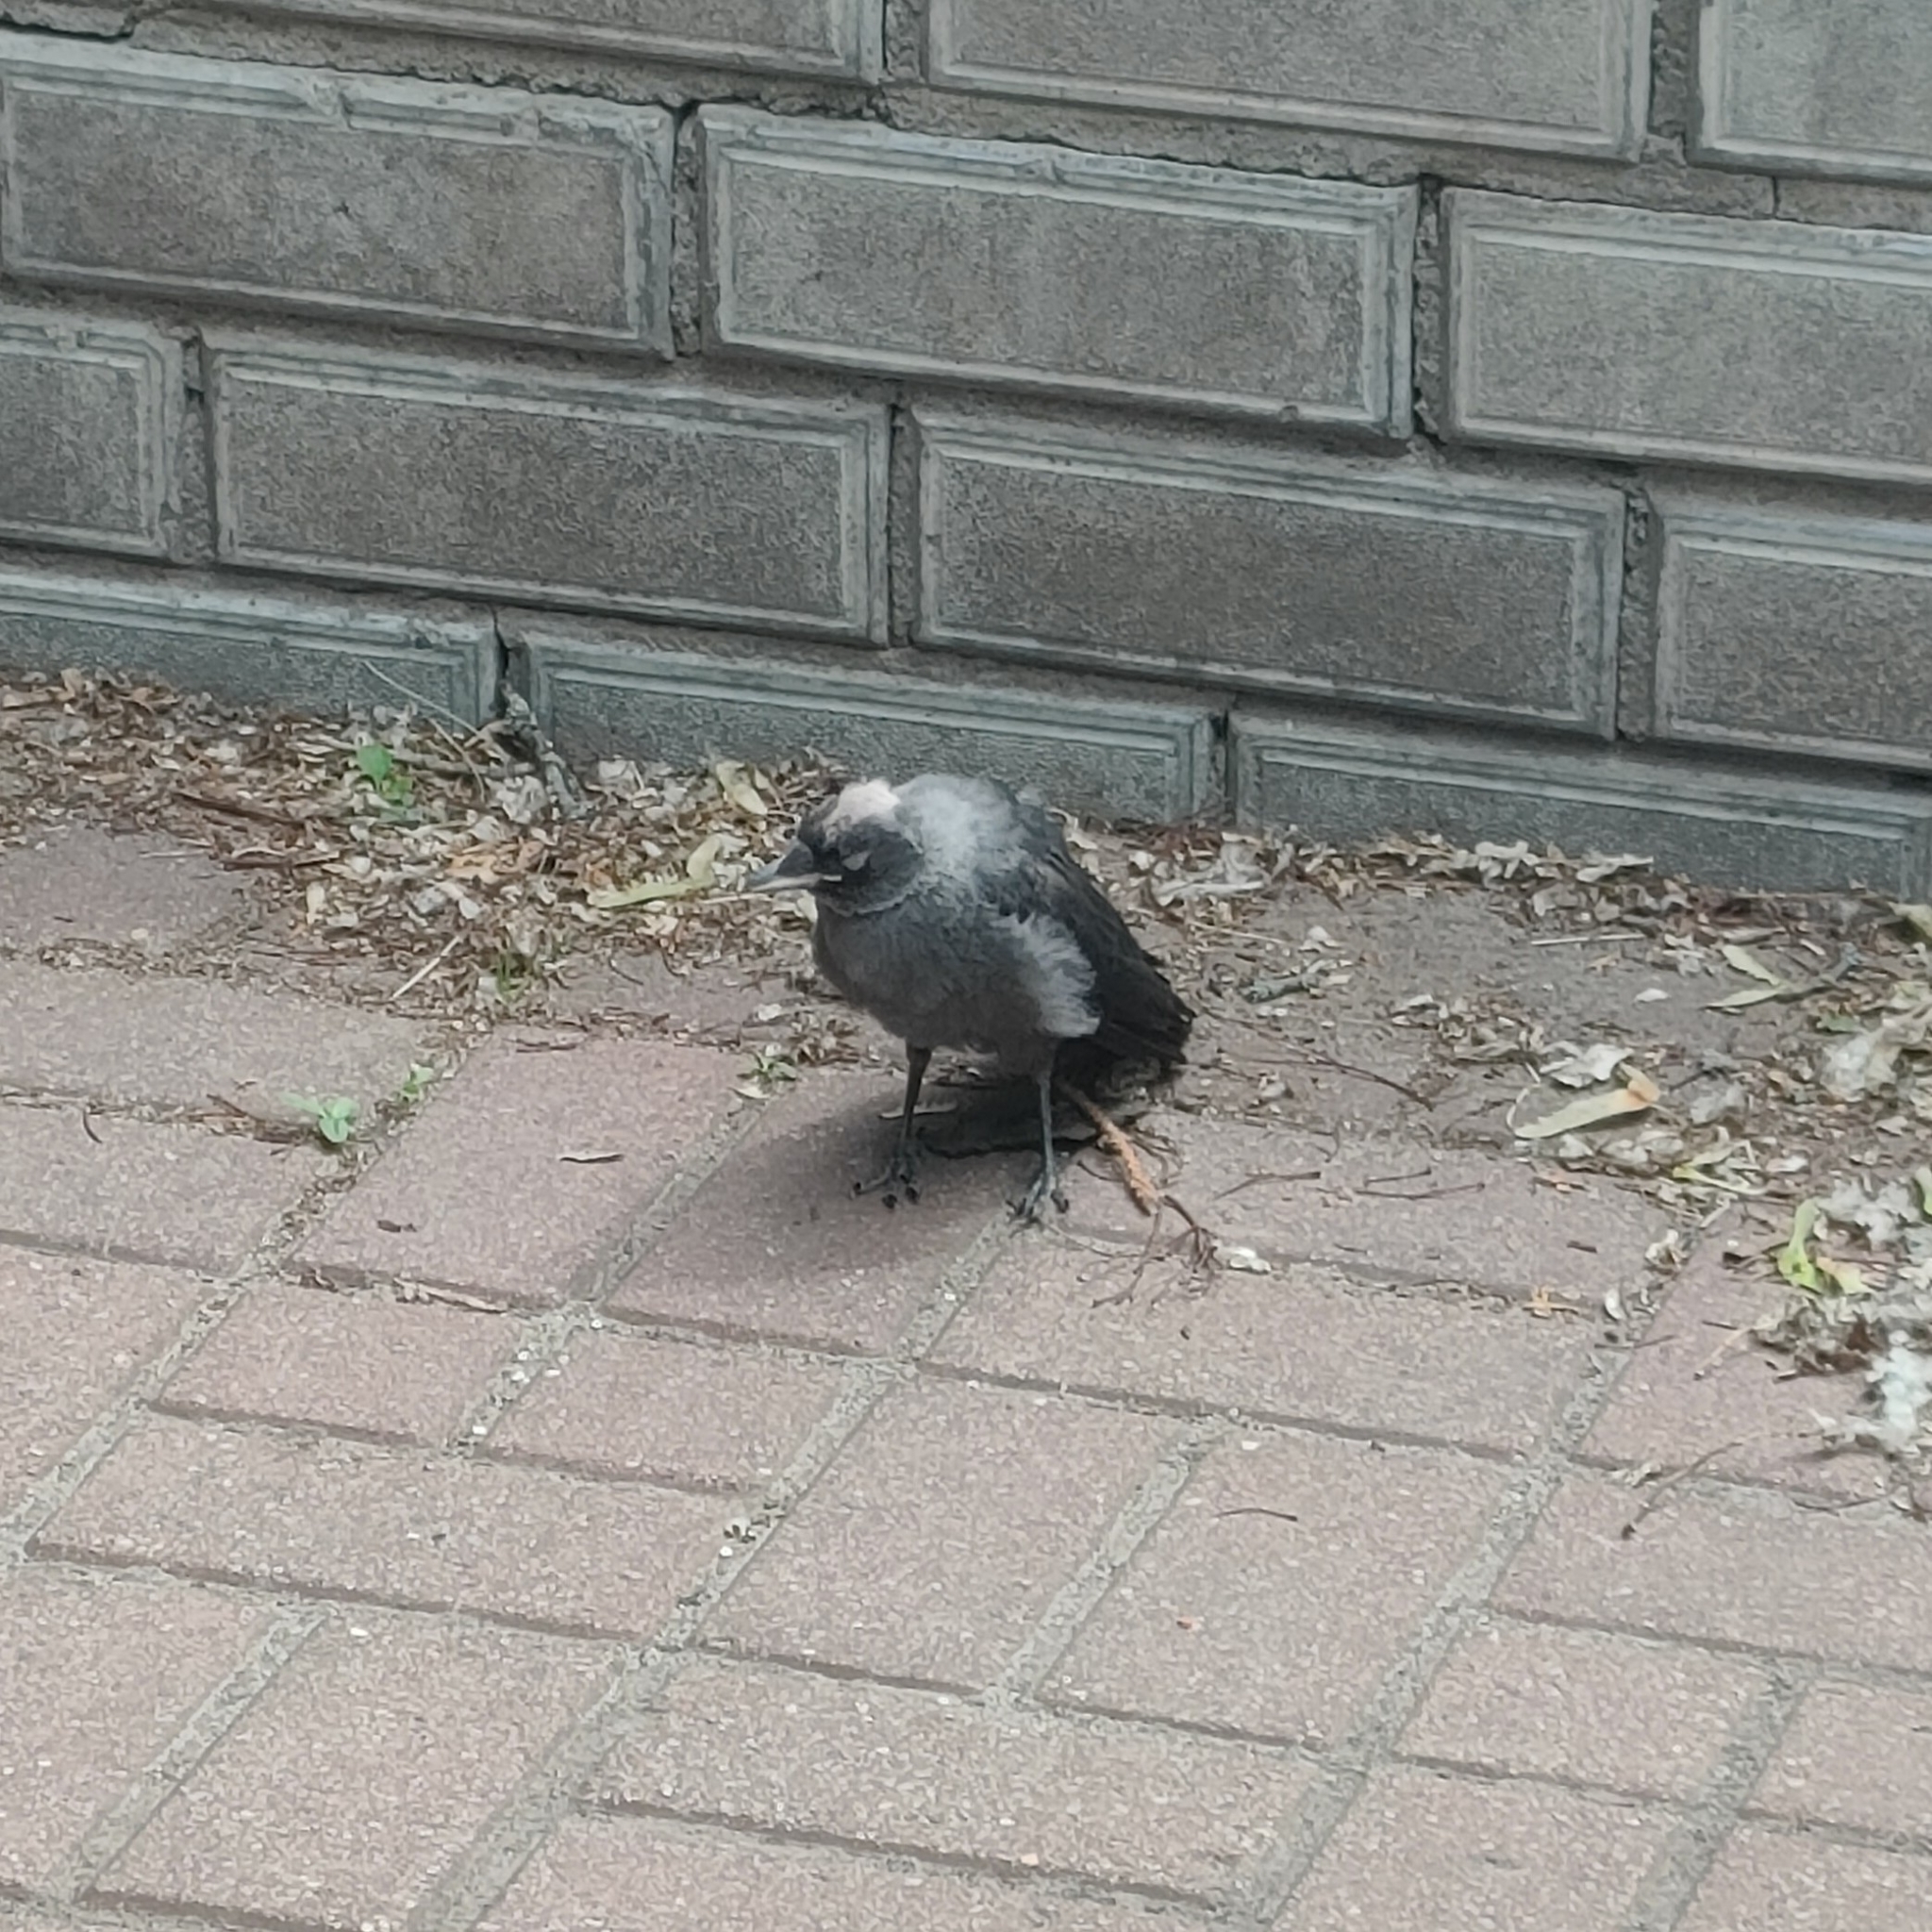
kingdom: Animalia
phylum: Chordata
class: Aves
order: Passeriformes
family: Corvidae
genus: Coloeus
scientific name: Coloeus monedula
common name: Western jackdaw
